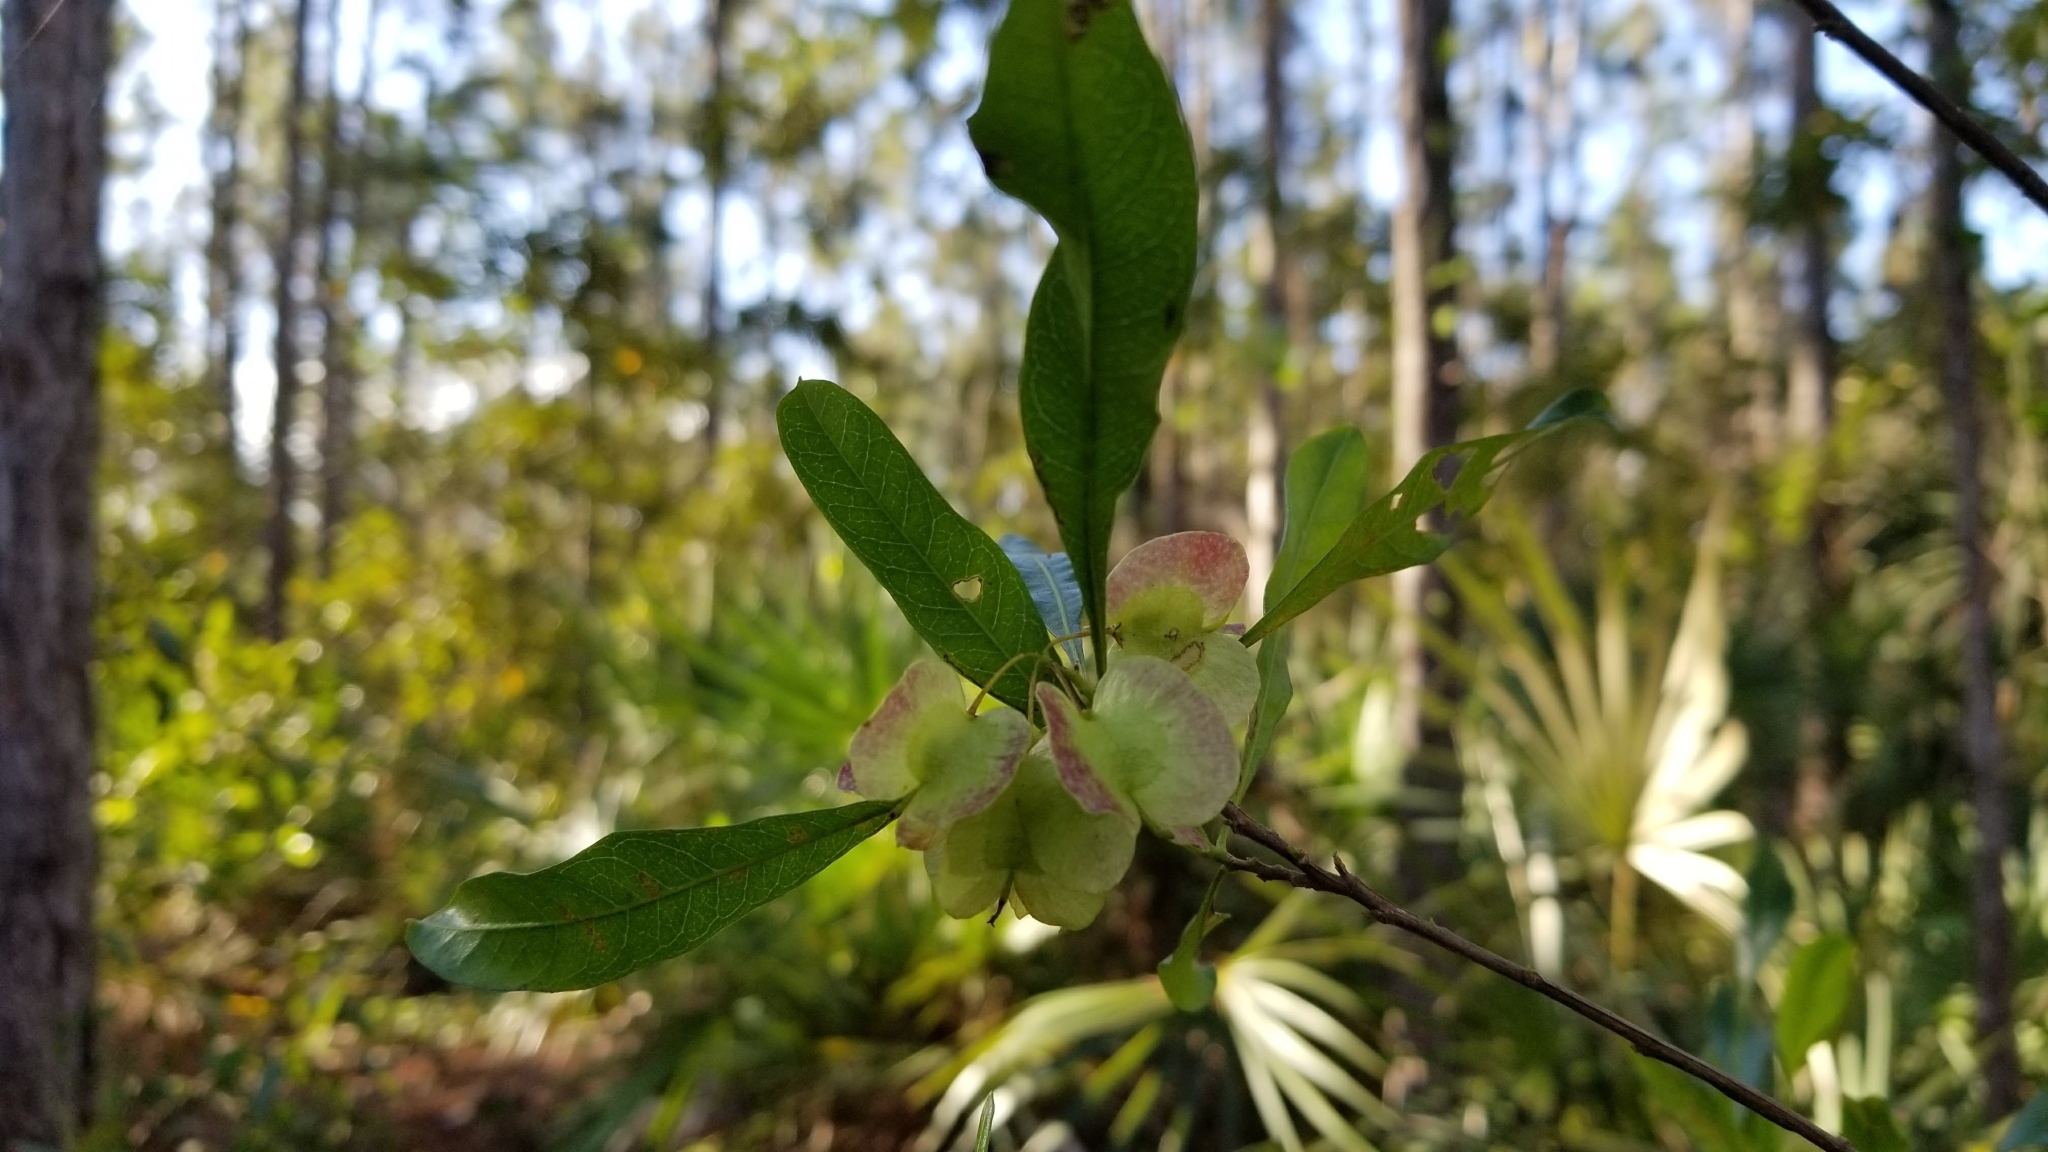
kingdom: Plantae
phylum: Tracheophyta
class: Magnoliopsida
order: Sapindales
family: Sapindaceae
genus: Dodonaea
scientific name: Dodonaea viscosa
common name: Hopbush
